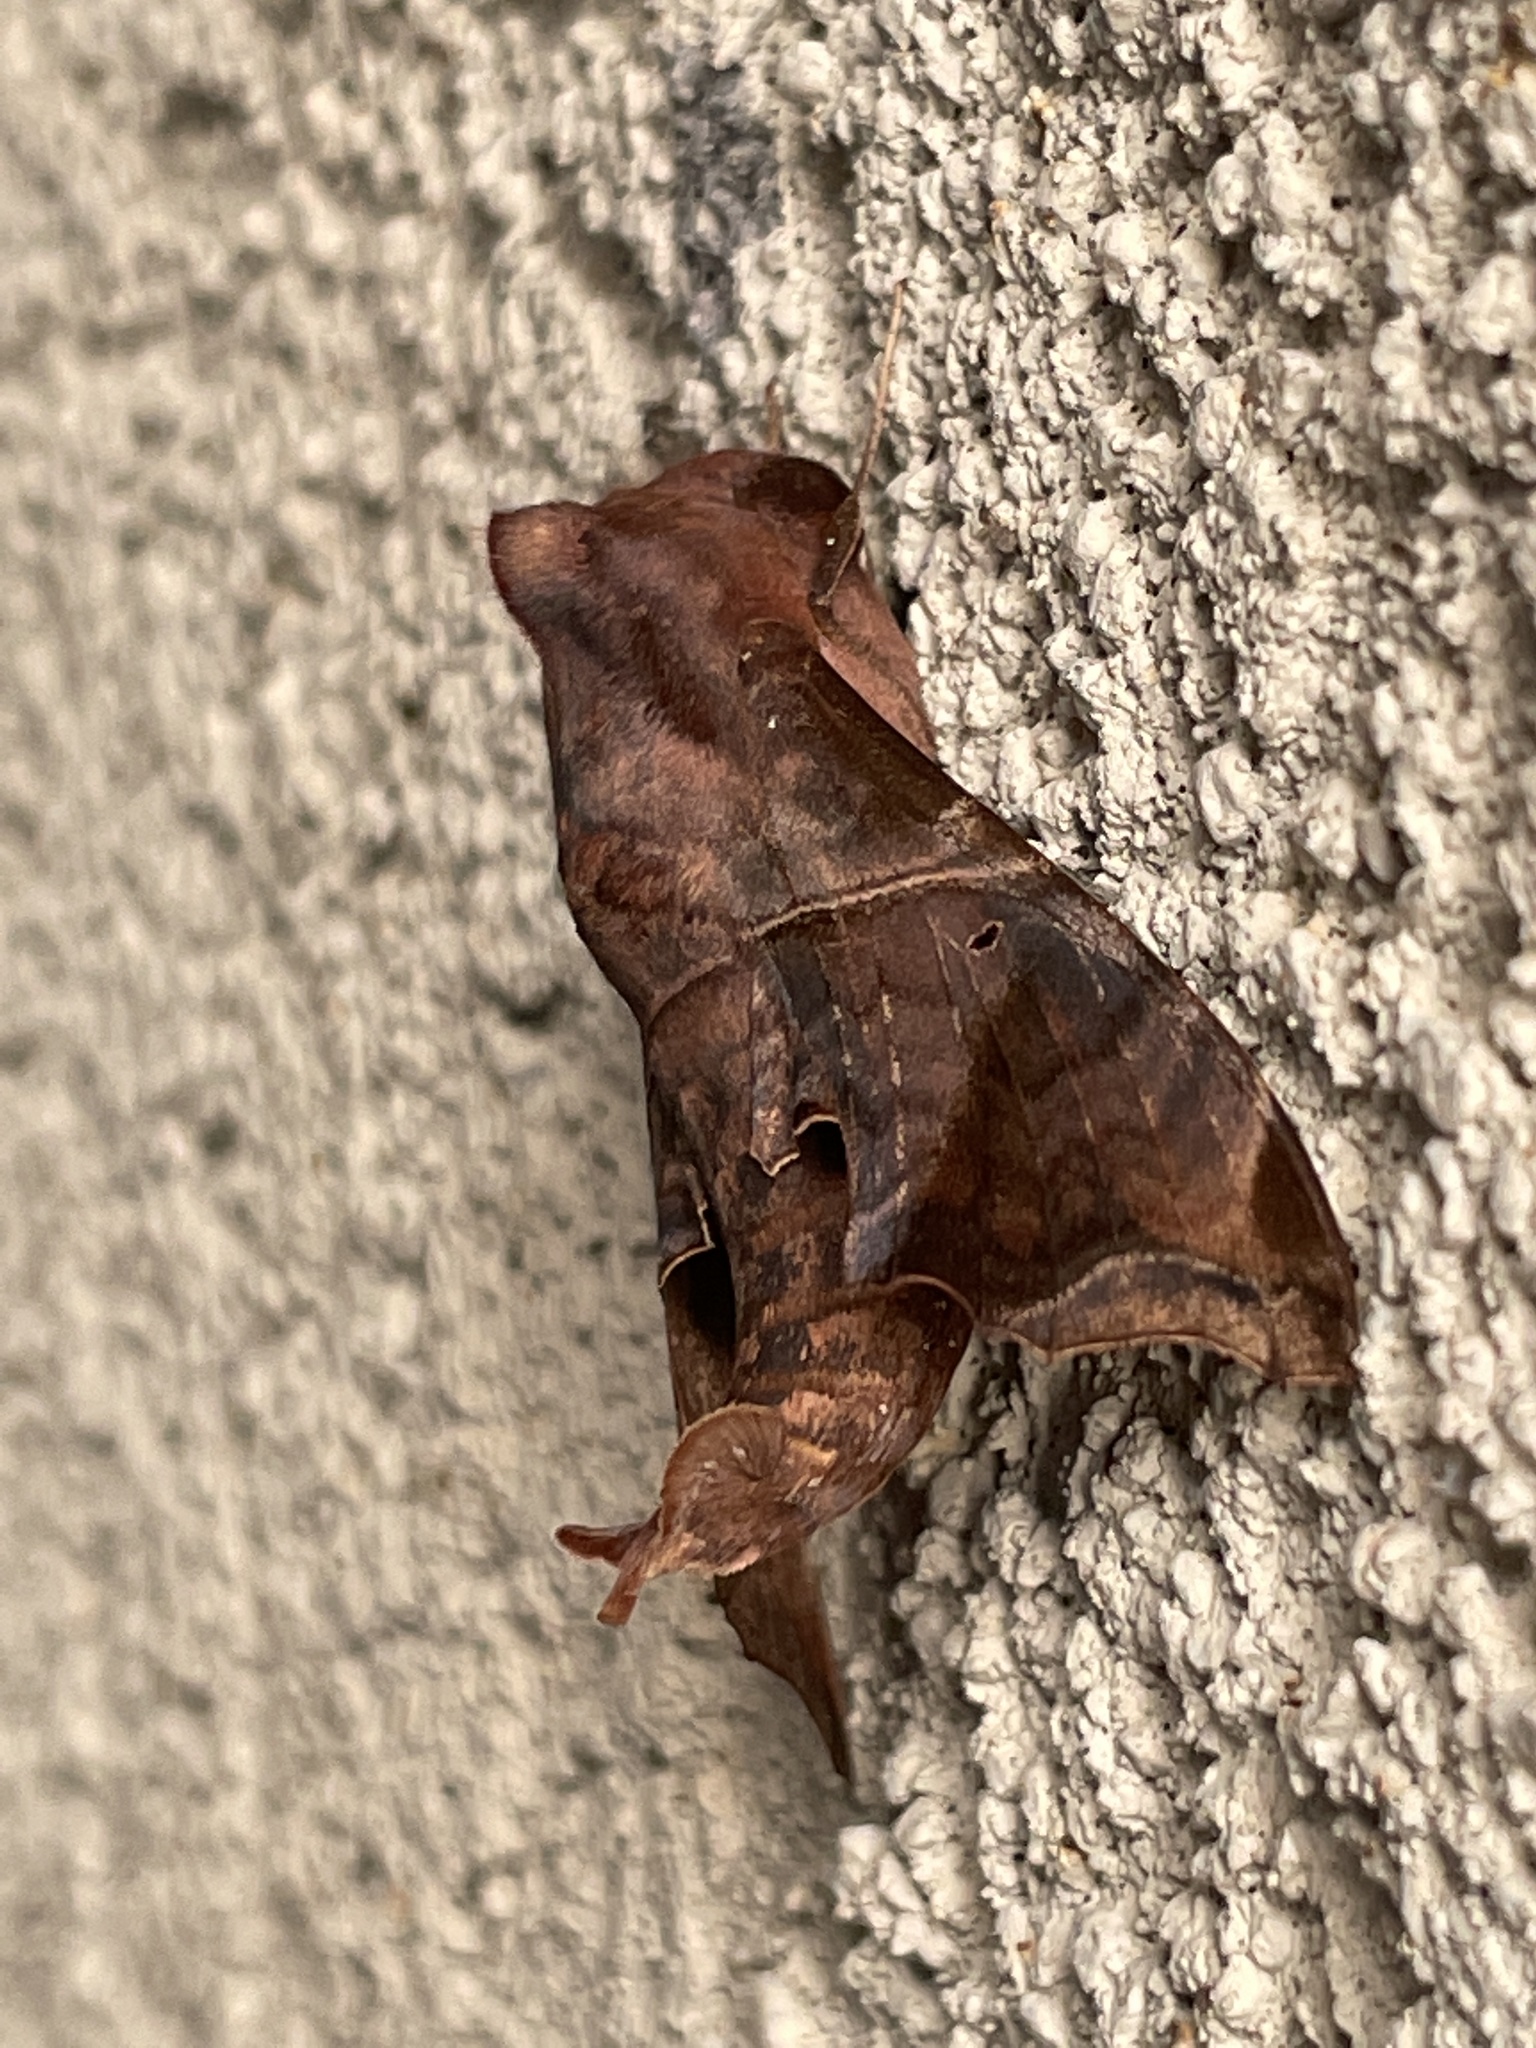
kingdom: Animalia
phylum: Arthropoda
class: Insecta
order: Lepidoptera
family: Sphingidae
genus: Enyo
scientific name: Enyo lugubris
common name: Mournful sphinx
